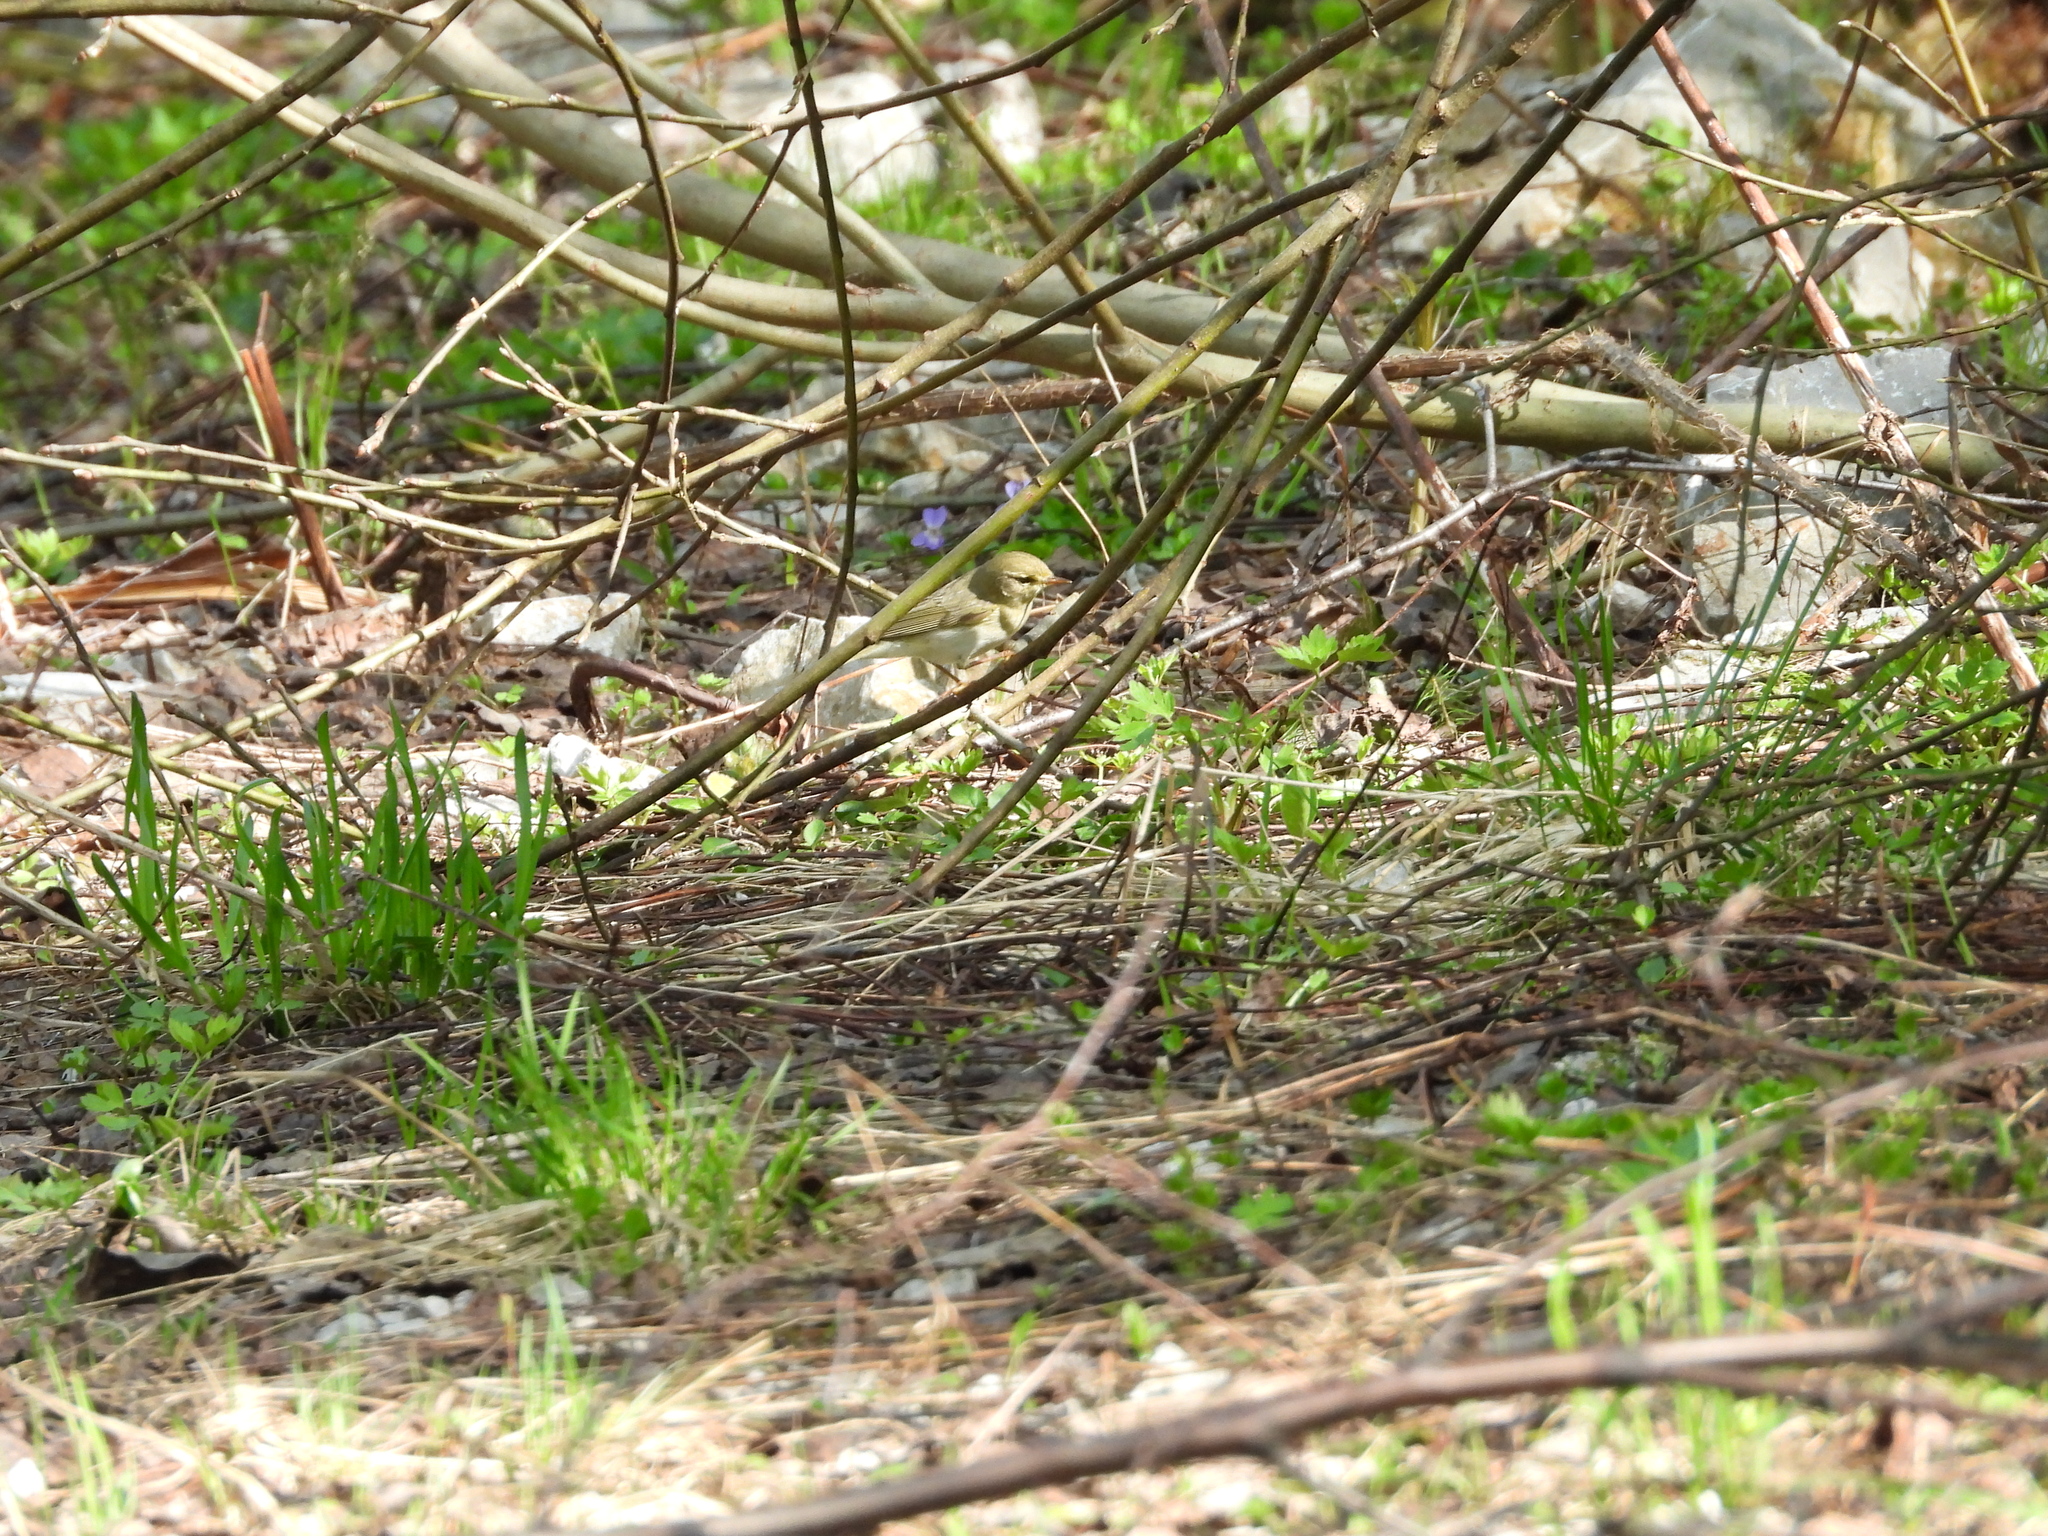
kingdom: Animalia
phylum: Chordata
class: Aves
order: Passeriformes
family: Phylloscopidae
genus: Phylloscopus
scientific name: Phylloscopus trochilus
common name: Willow warbler
